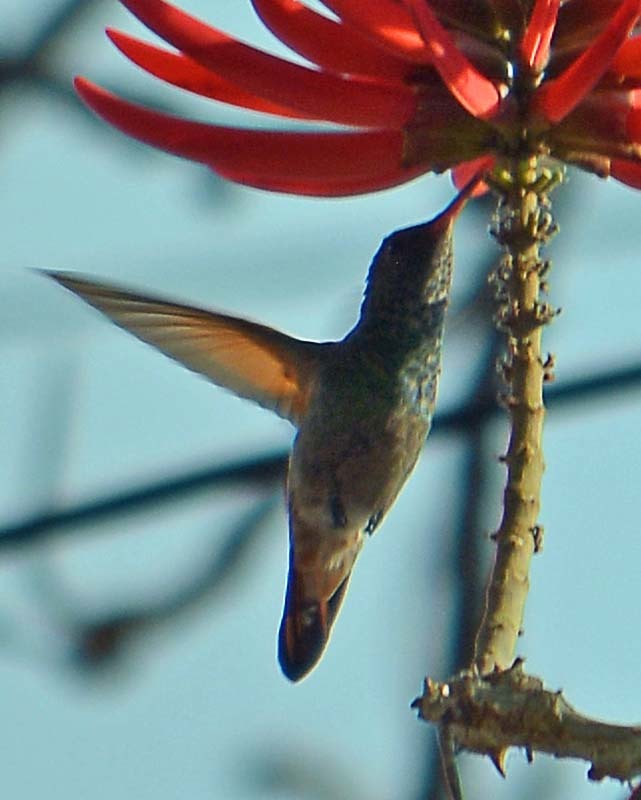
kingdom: Animalia
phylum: Chordata
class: Aves
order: Apodiformes
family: Trochilidae
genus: Saucerottia
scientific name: Saucerottia beryllina
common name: Berylline hummingbird
